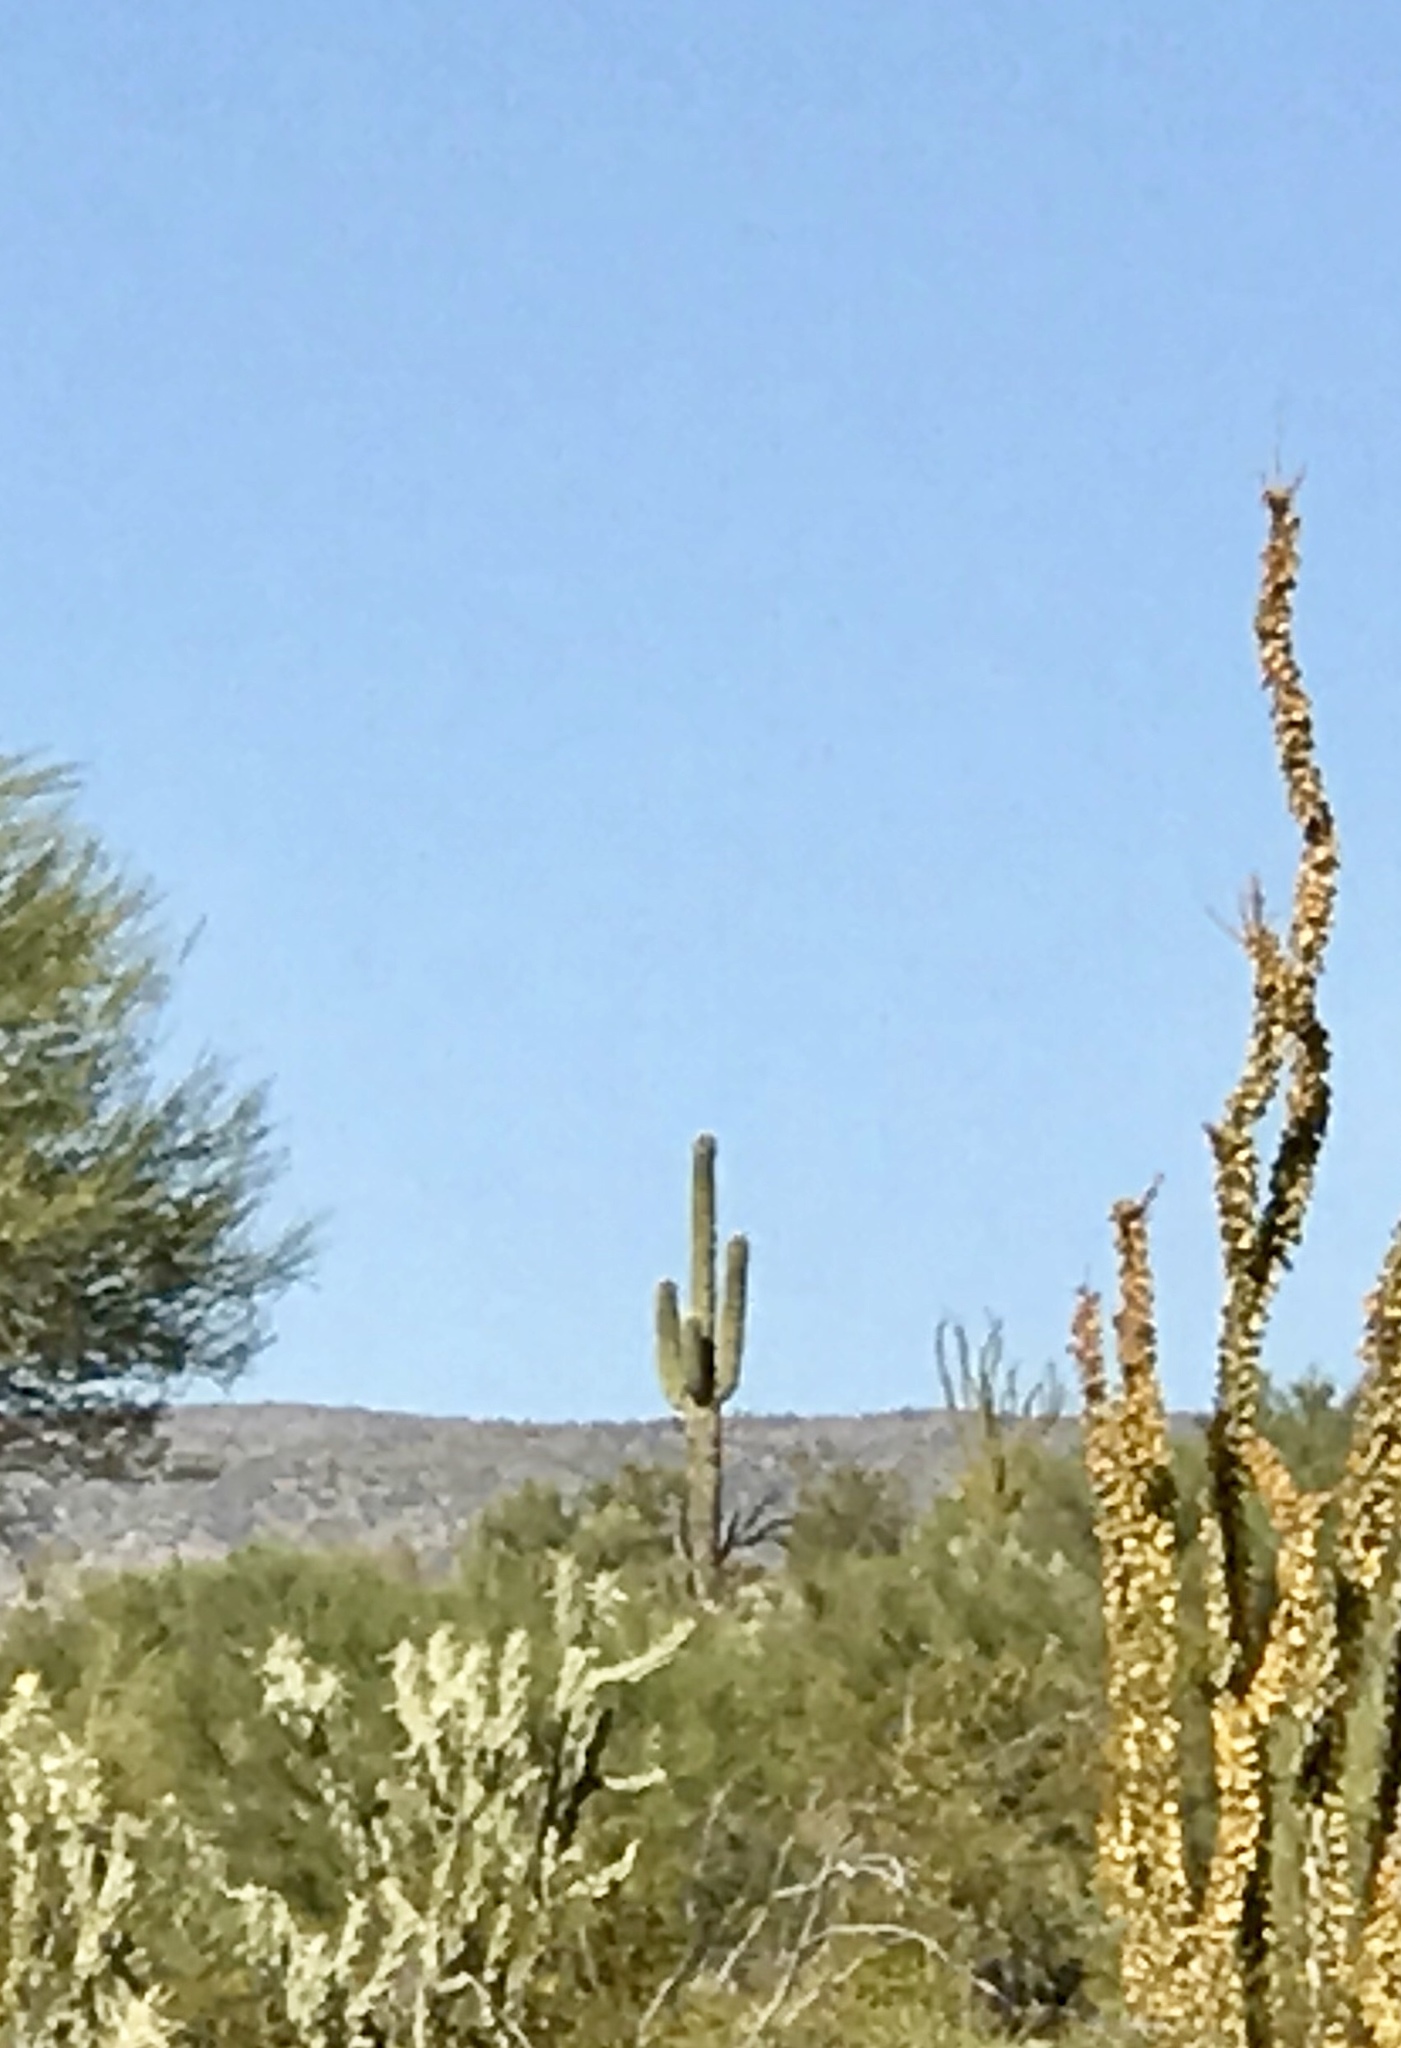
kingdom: Plantae
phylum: Tracheophyta
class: Magnoliopsida
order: Caryophyllales
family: Cactaceae
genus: Carnegiea
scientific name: Carnegiea gigantea
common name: Saguaro
